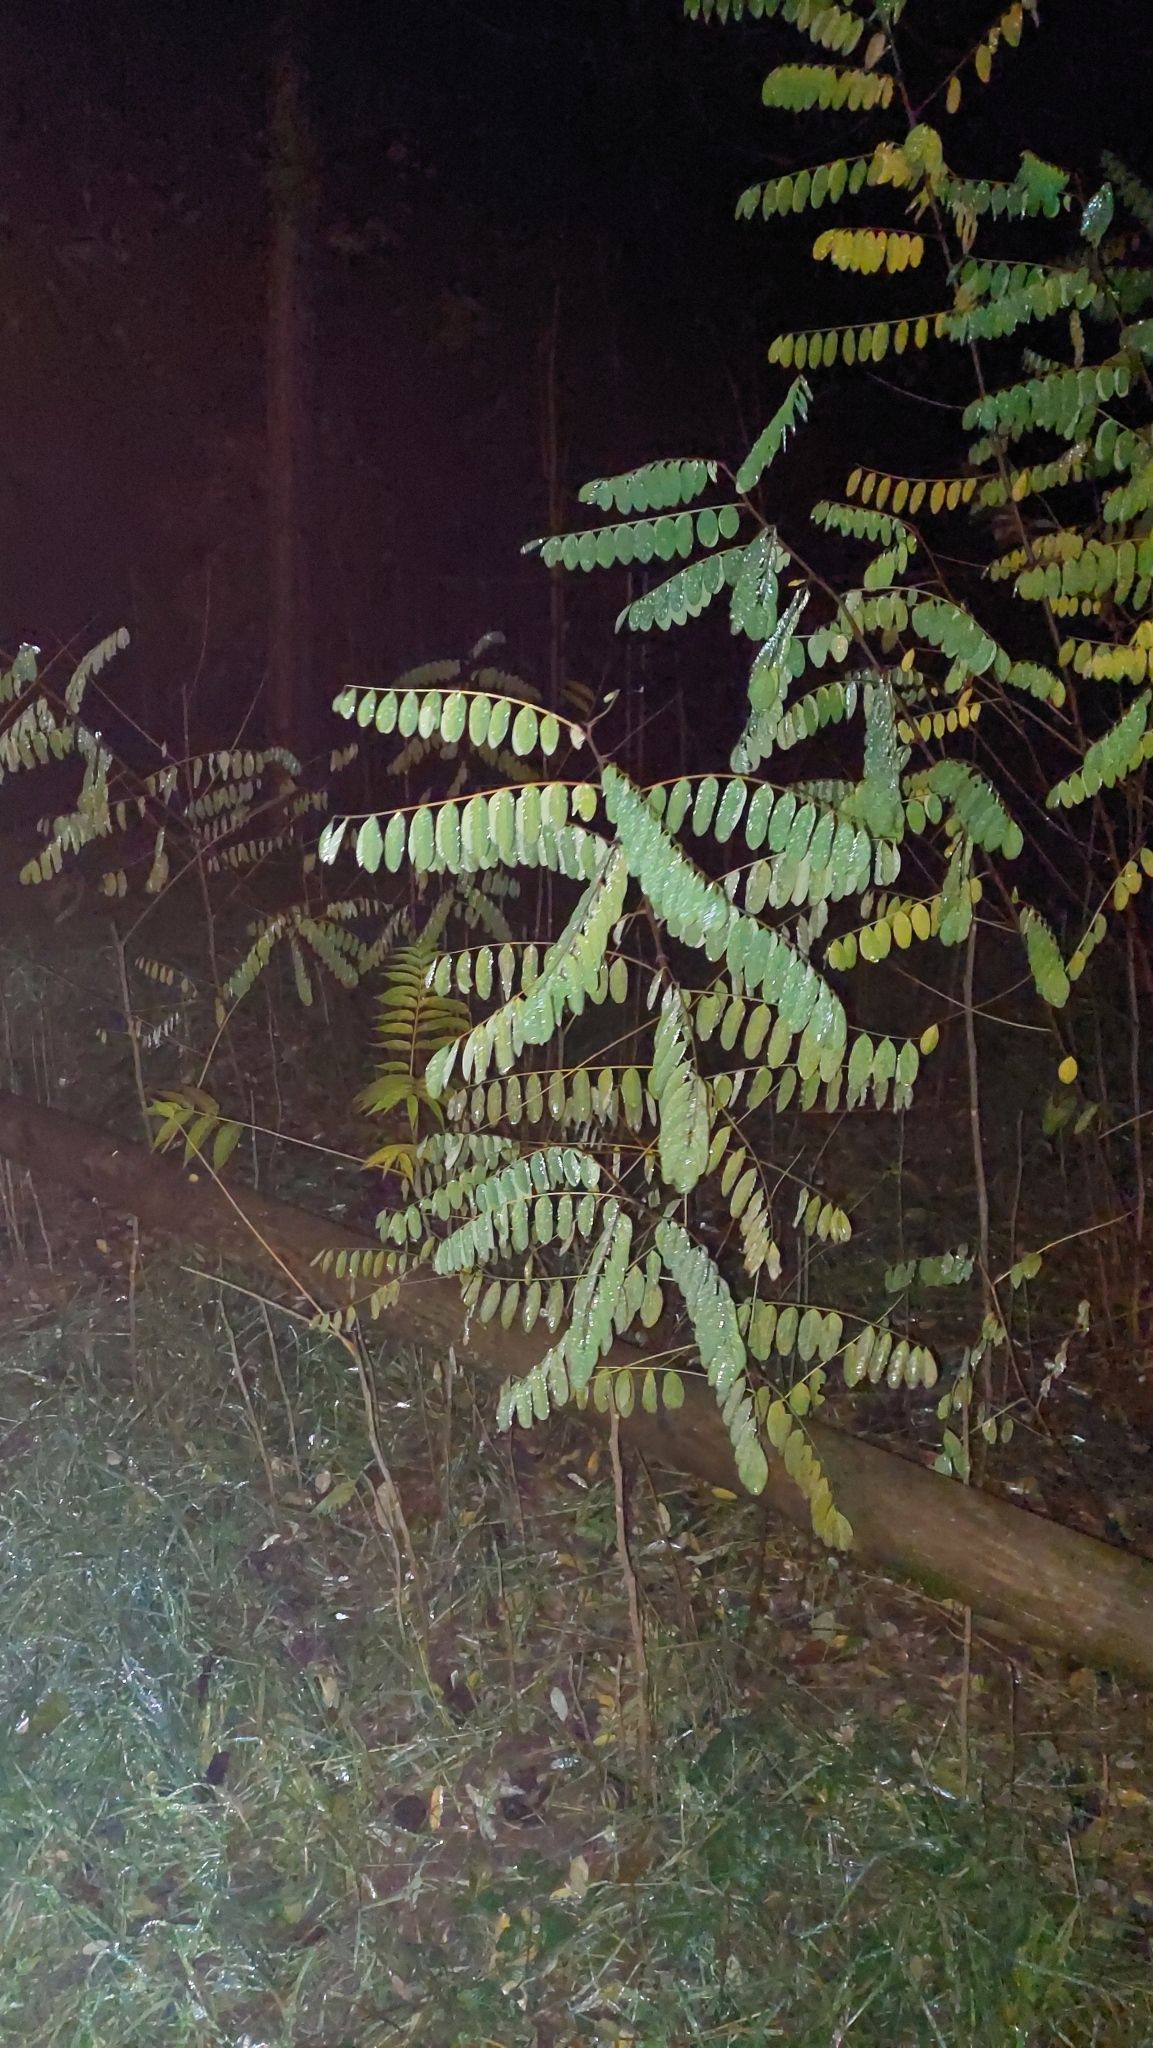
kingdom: Plantae
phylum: Tracheophyta
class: Magnoliopsida
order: Fabales
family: Fabaceae
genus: Robinia
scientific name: Robinia pseudoacacia
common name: Black locust
